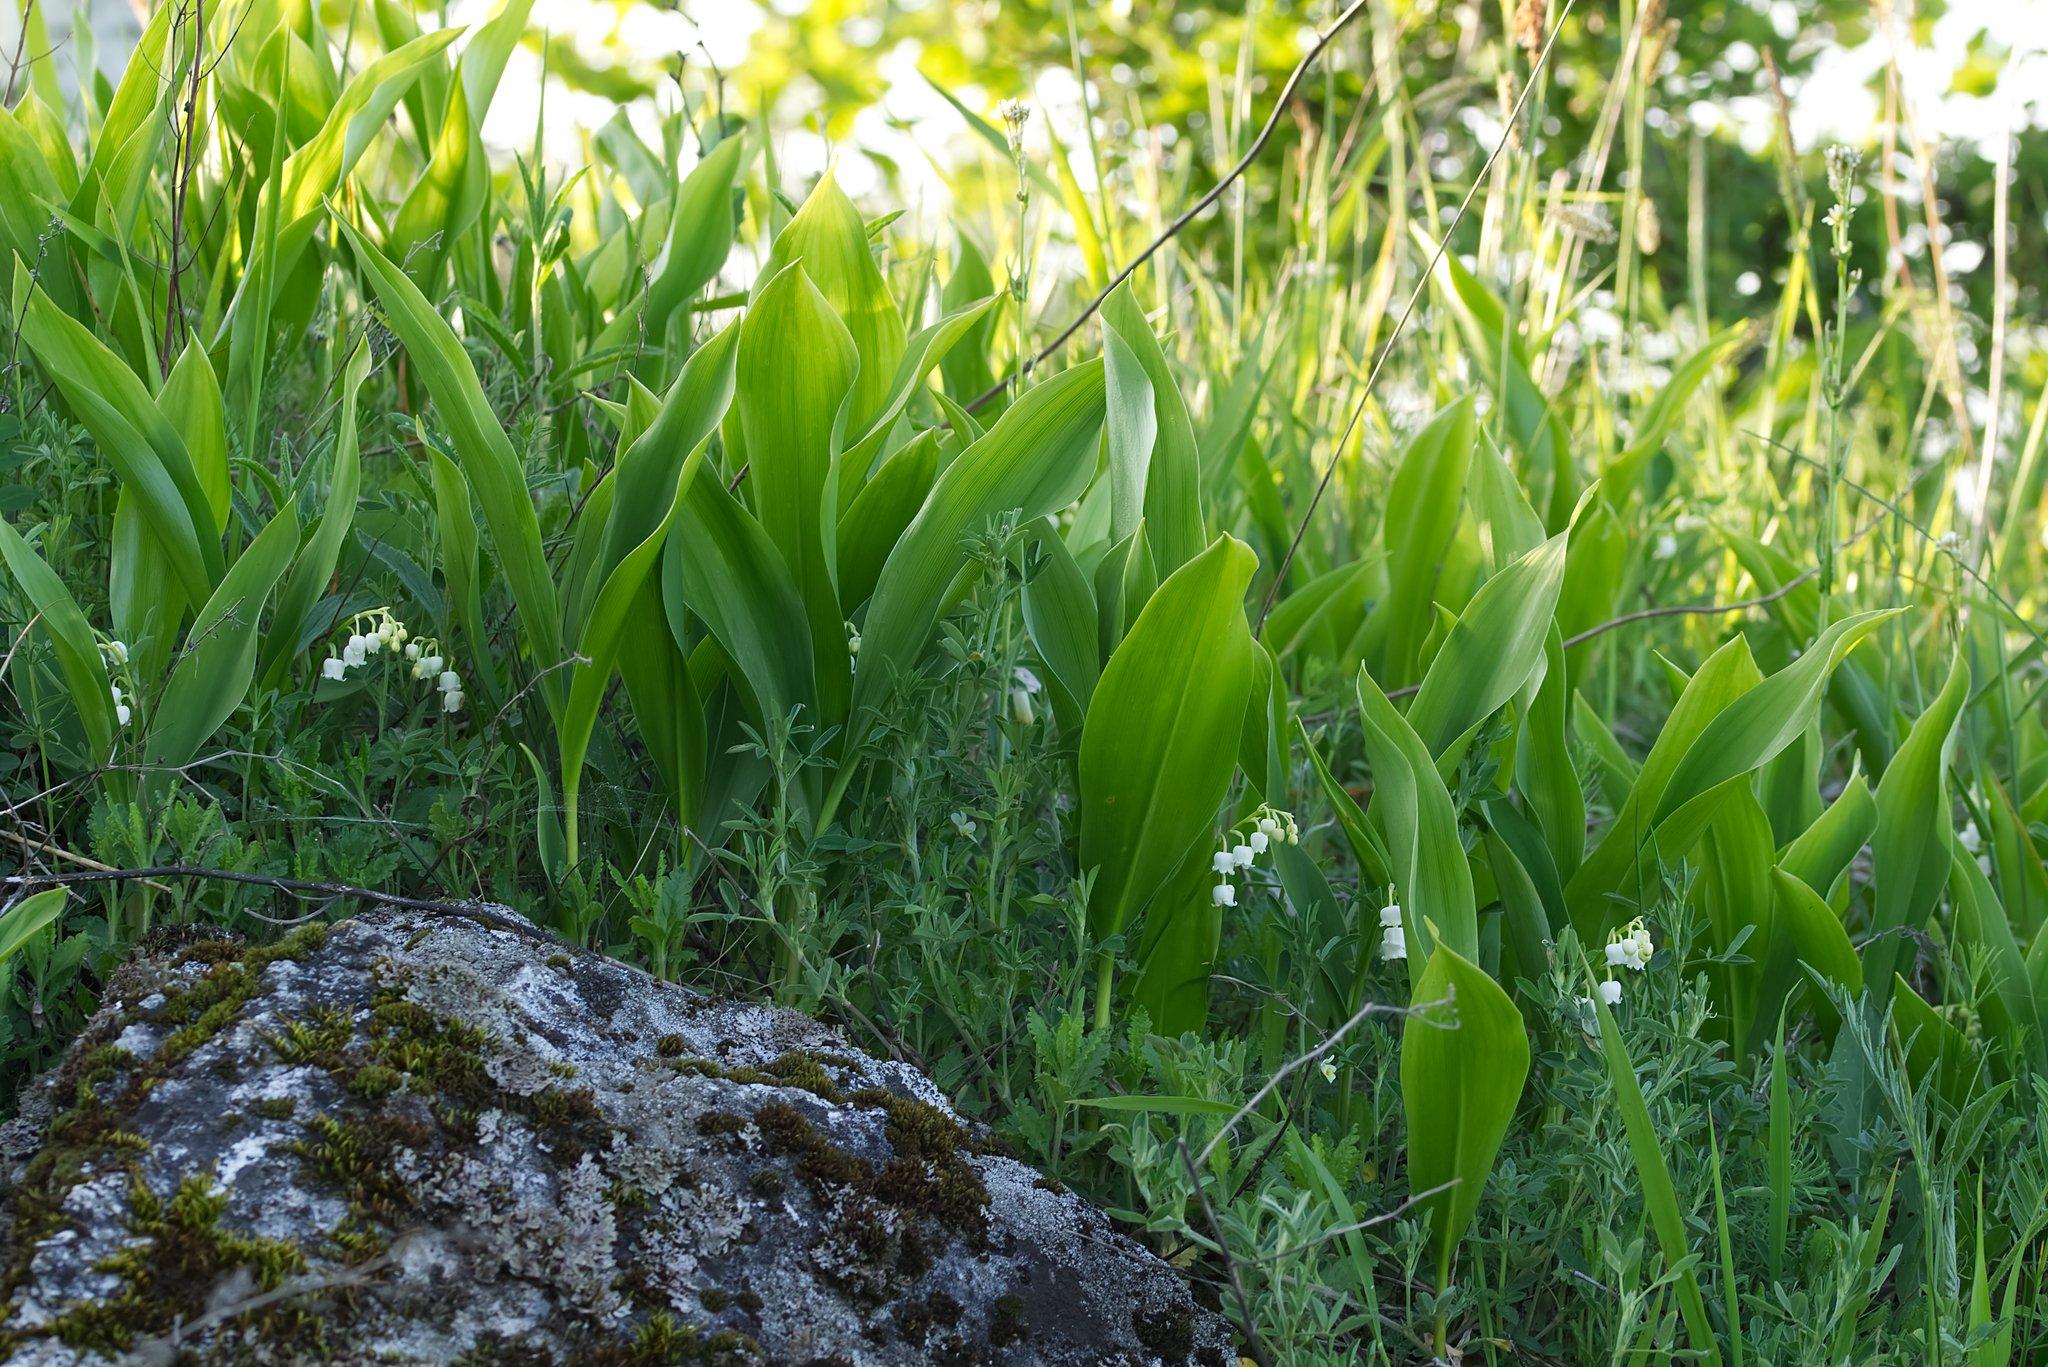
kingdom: Plantae
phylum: Tracheophyta
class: Liliopsida
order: Asparagales
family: Asparagaceae
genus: Convallaria
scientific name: Convallaria majalis
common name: Lily-of-the-valley
